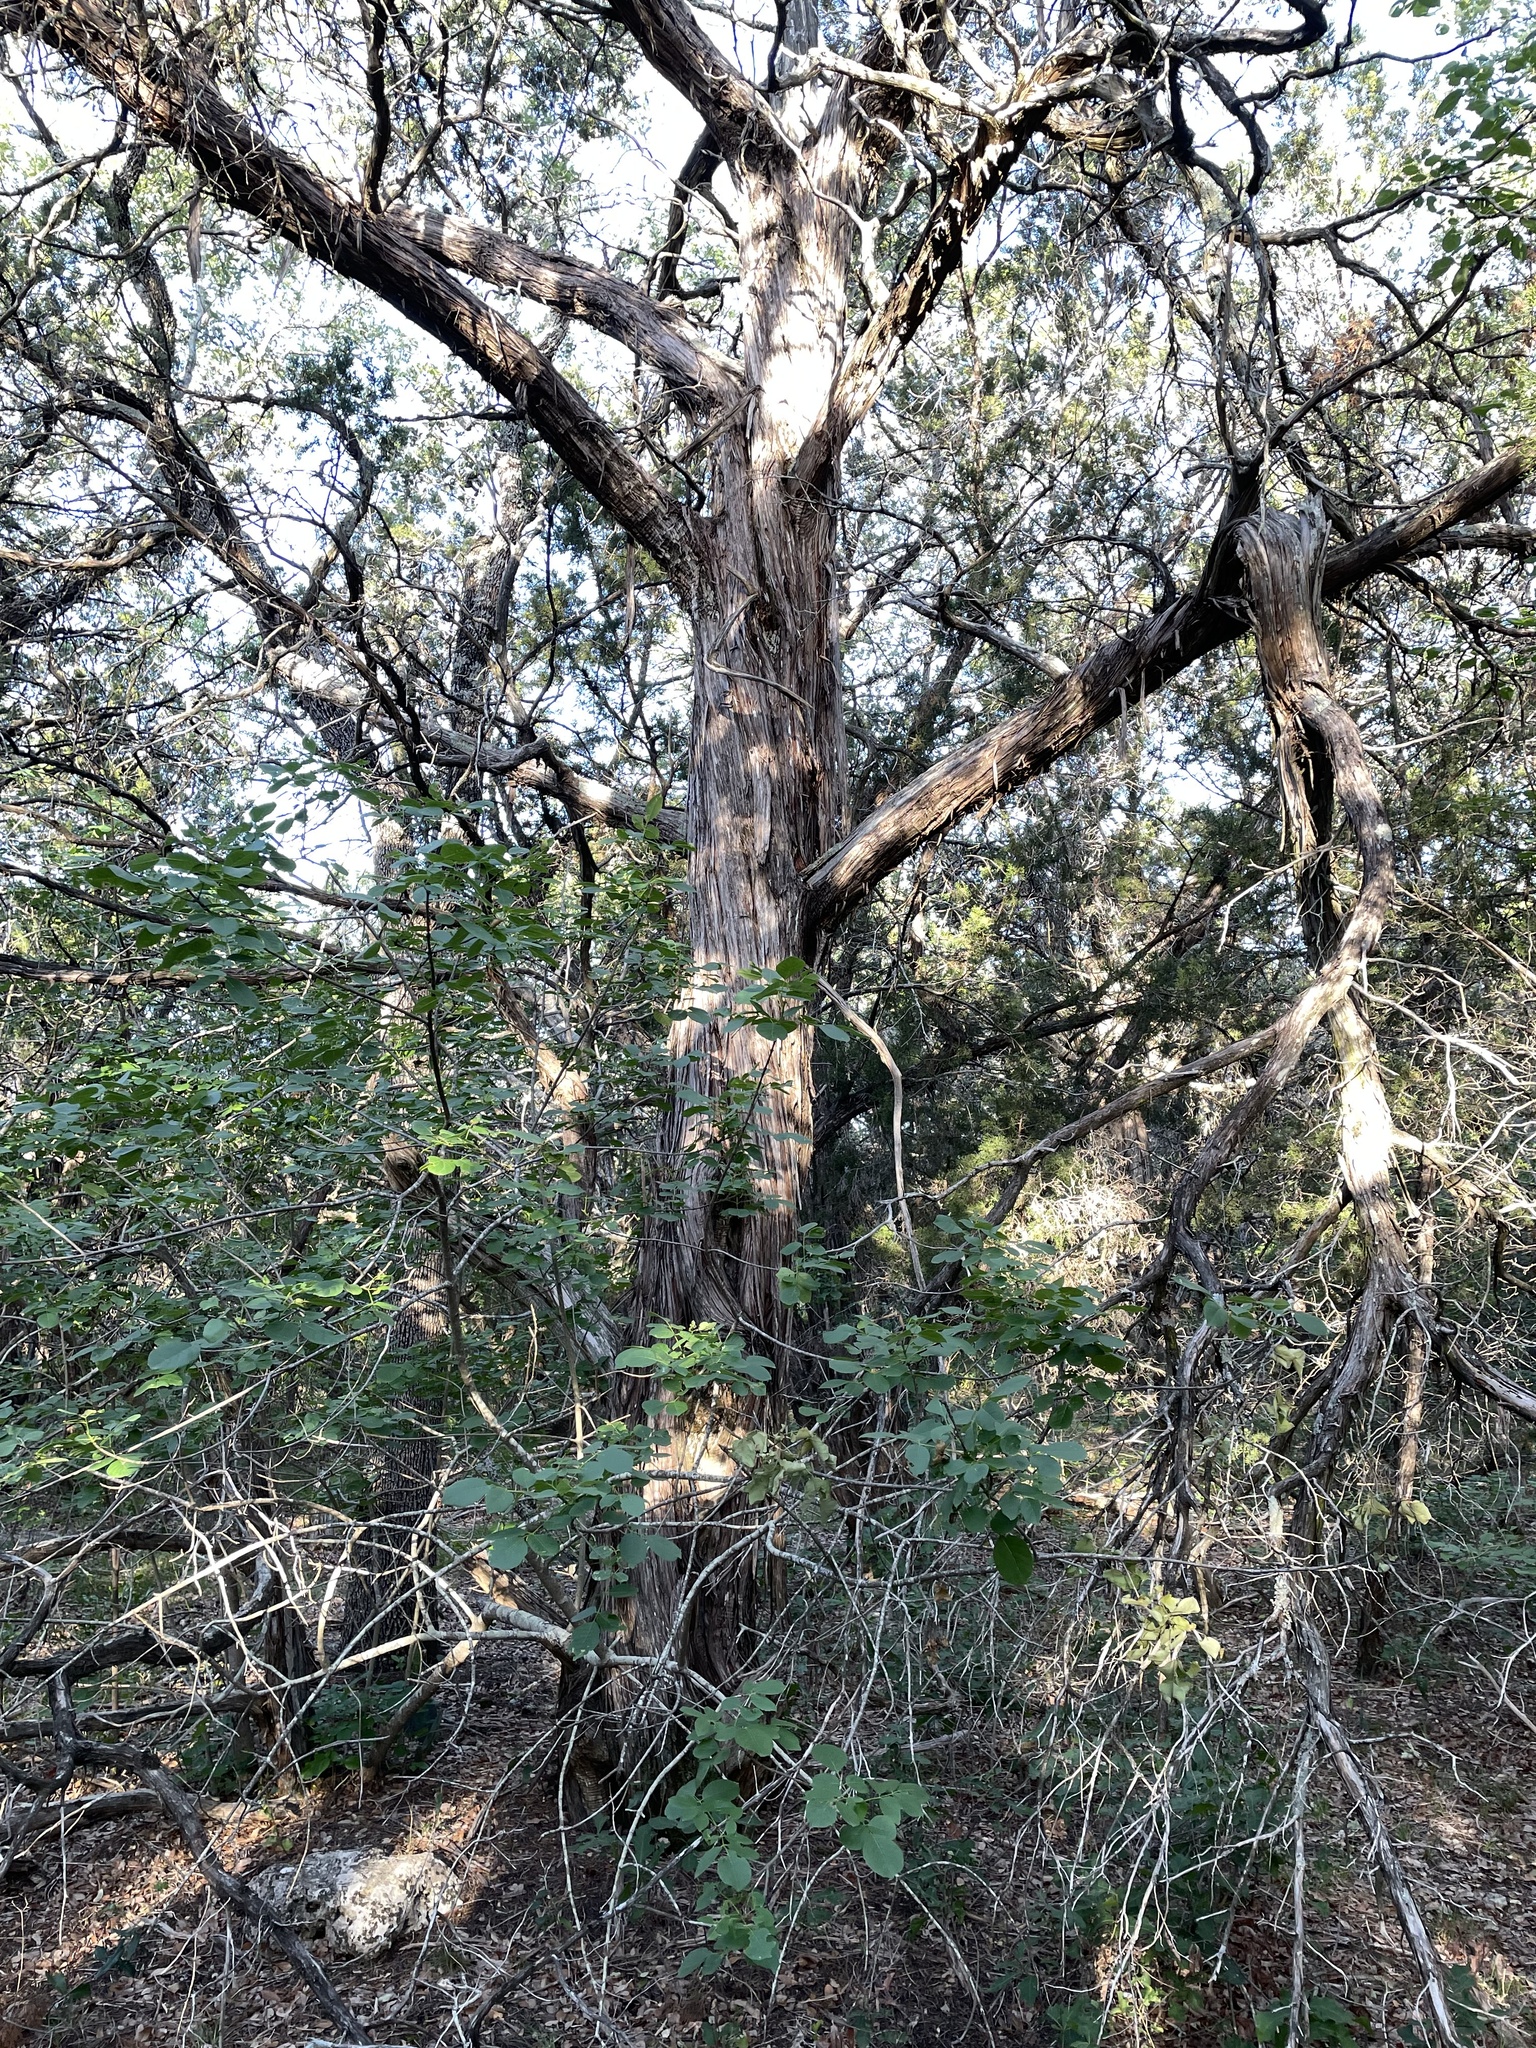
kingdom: Plantae
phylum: Tracheophyta
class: Pinopsida
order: Pinales
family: Cupressaceae
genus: Juniperus
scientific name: Juniperus ashei
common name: Mexican juniper
